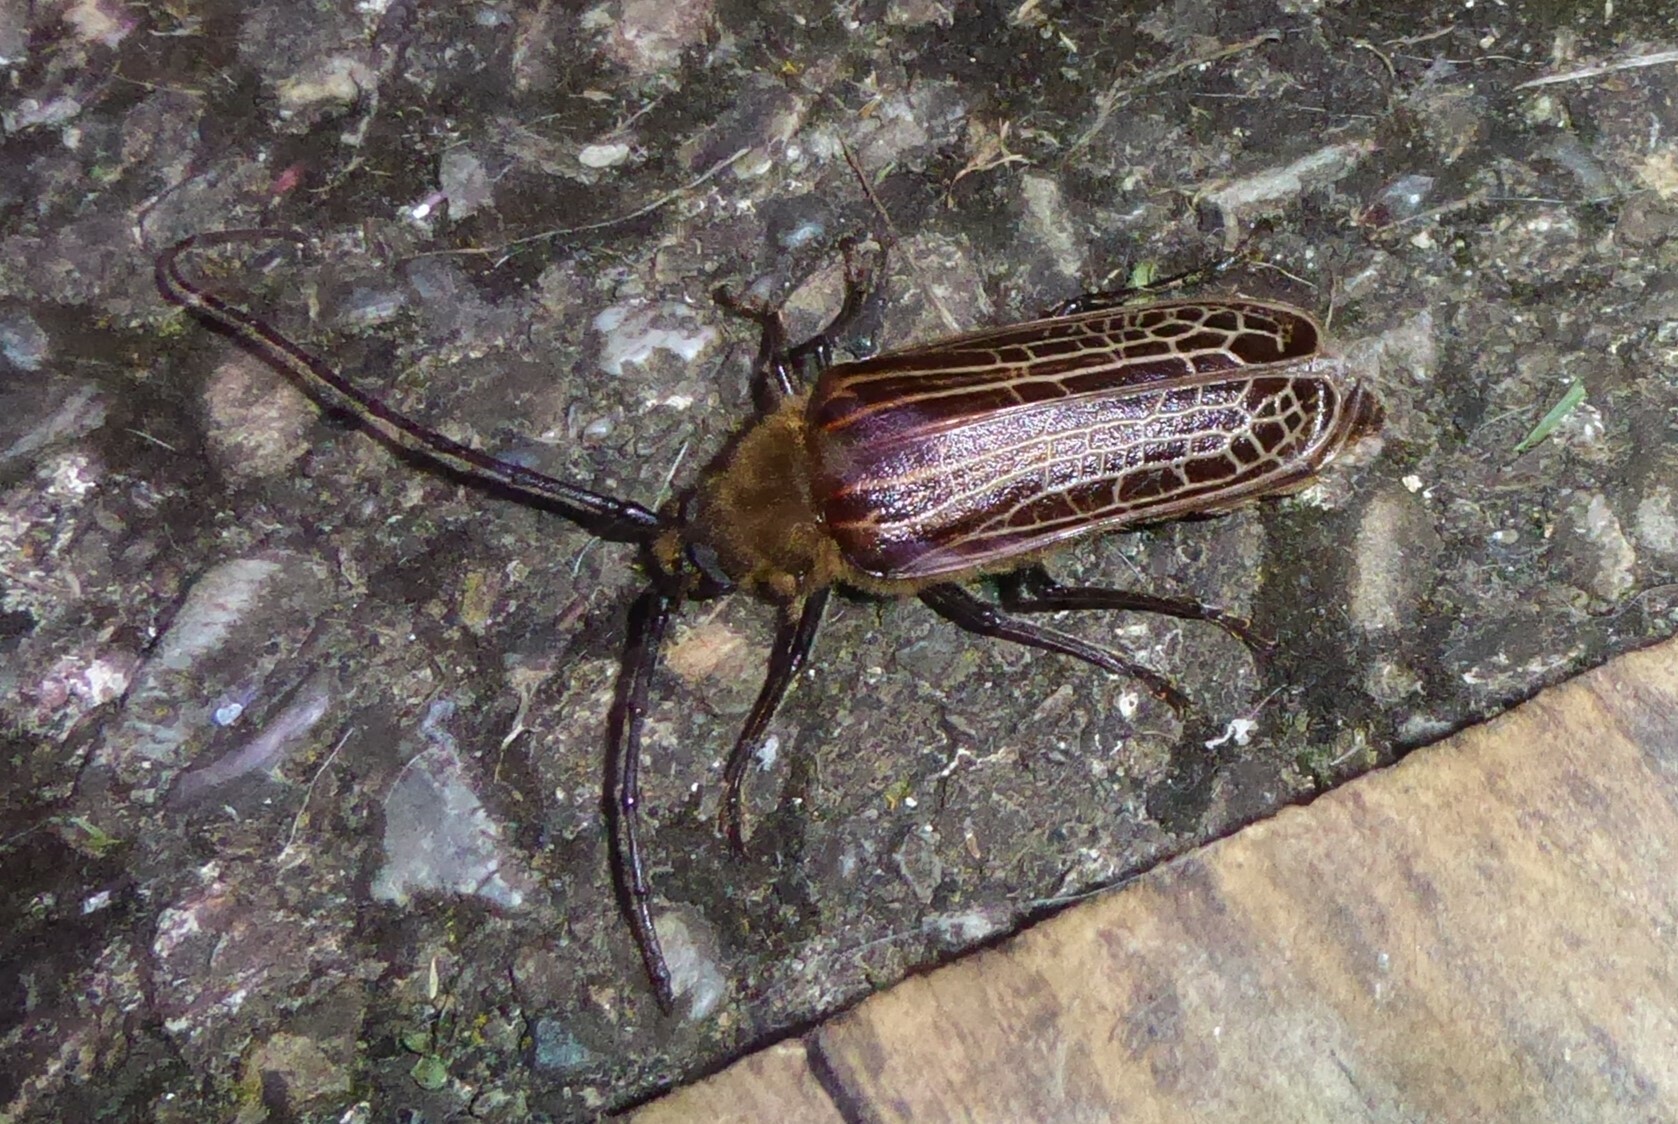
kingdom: Animalia
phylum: Arthropoda
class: Insecta
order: Coleoptera
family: Cerambycidae
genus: Prionoplus
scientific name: Prionoplus reticularis
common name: Huhu beetle
